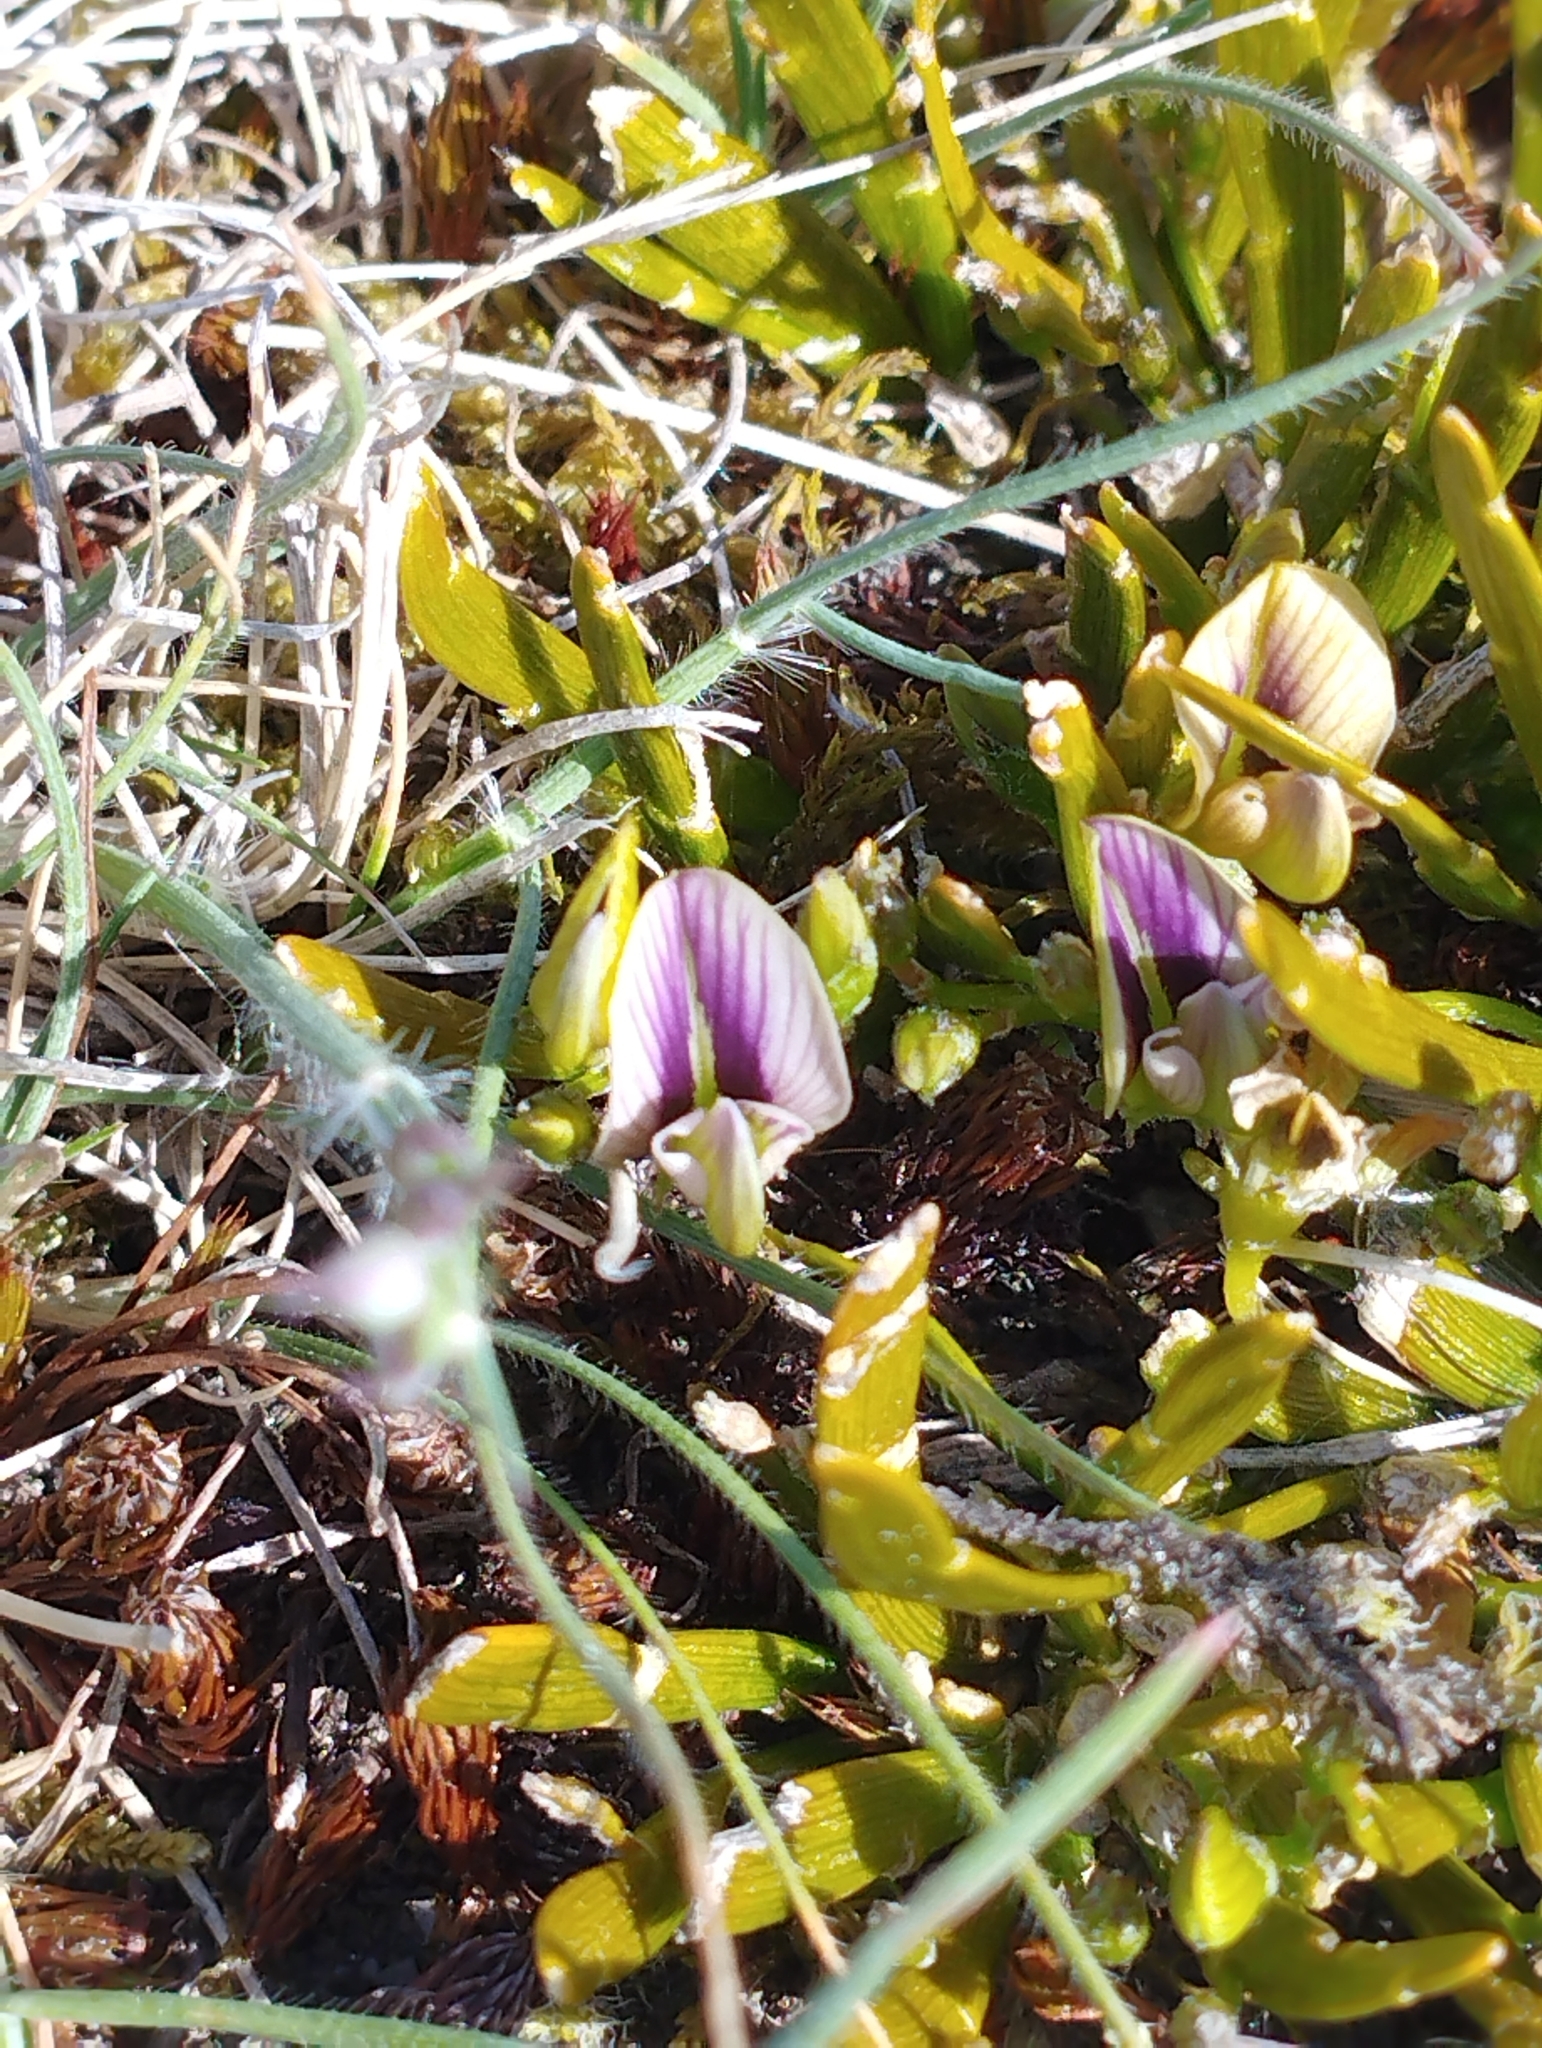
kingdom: Plantae
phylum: Tracheophyta
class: Magnoliopsida
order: Fabales
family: Fabaceae
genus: Carmichaelia
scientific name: Carmichaelia corrugata
